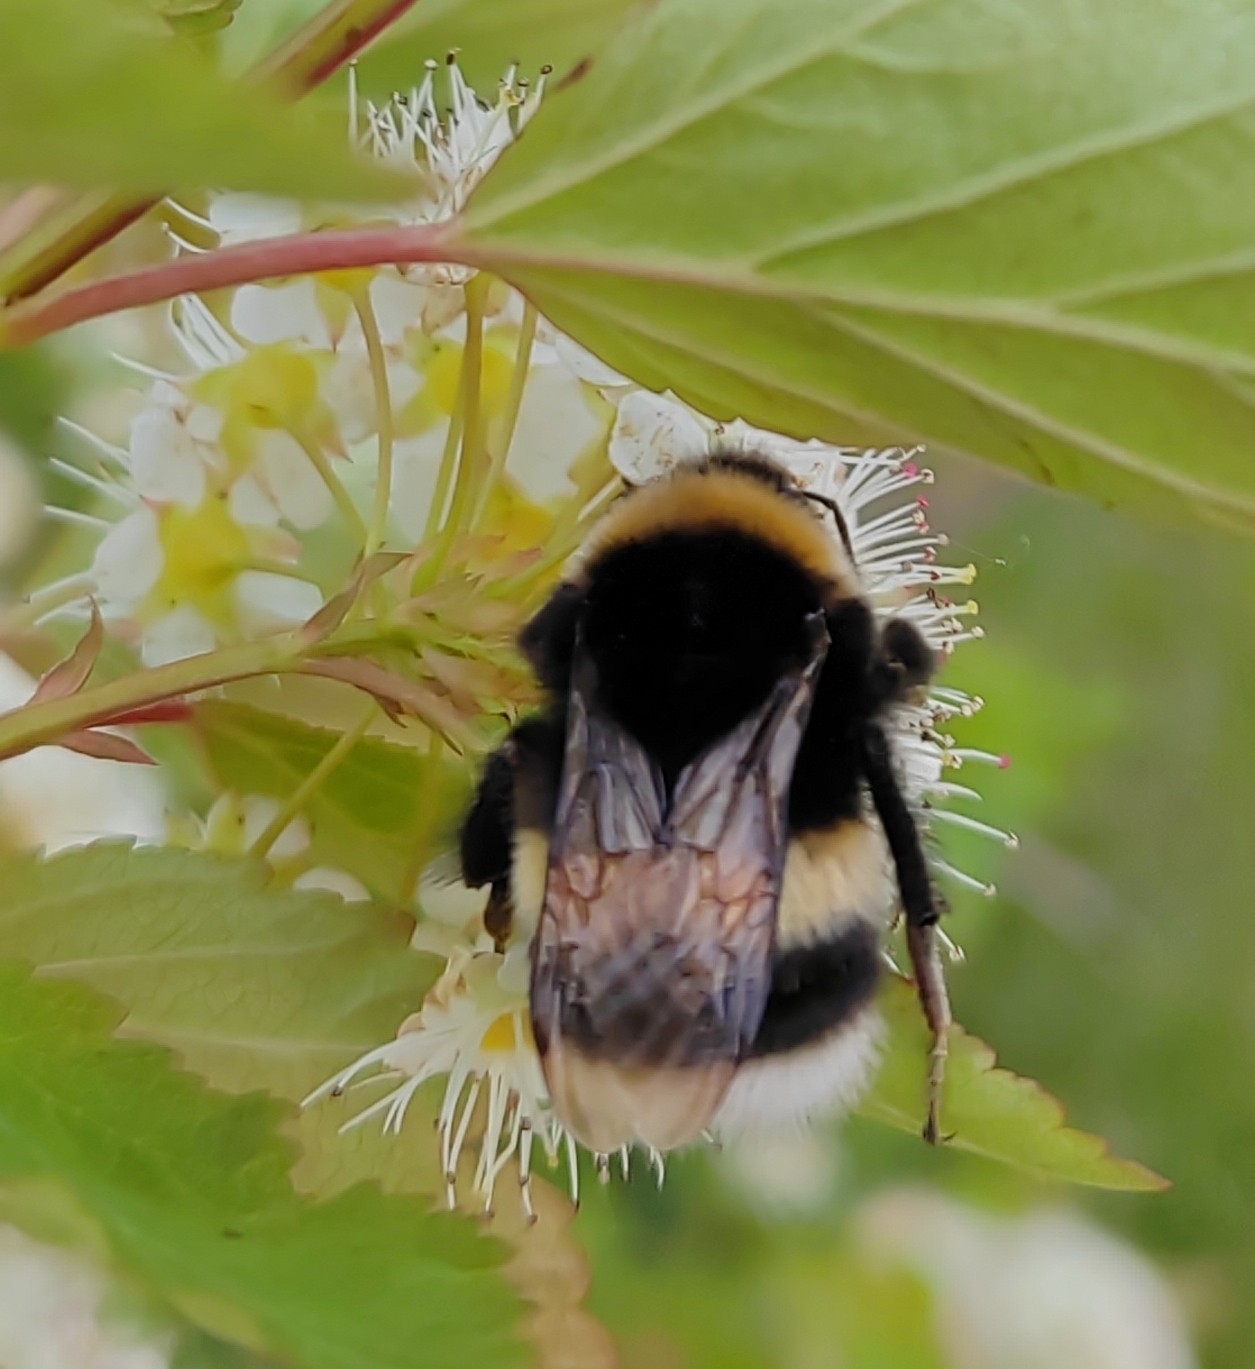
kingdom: Animalia
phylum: Arthropoda
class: Insecta
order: Hymenoptera
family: Apidae
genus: Bombus
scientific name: Bombus
